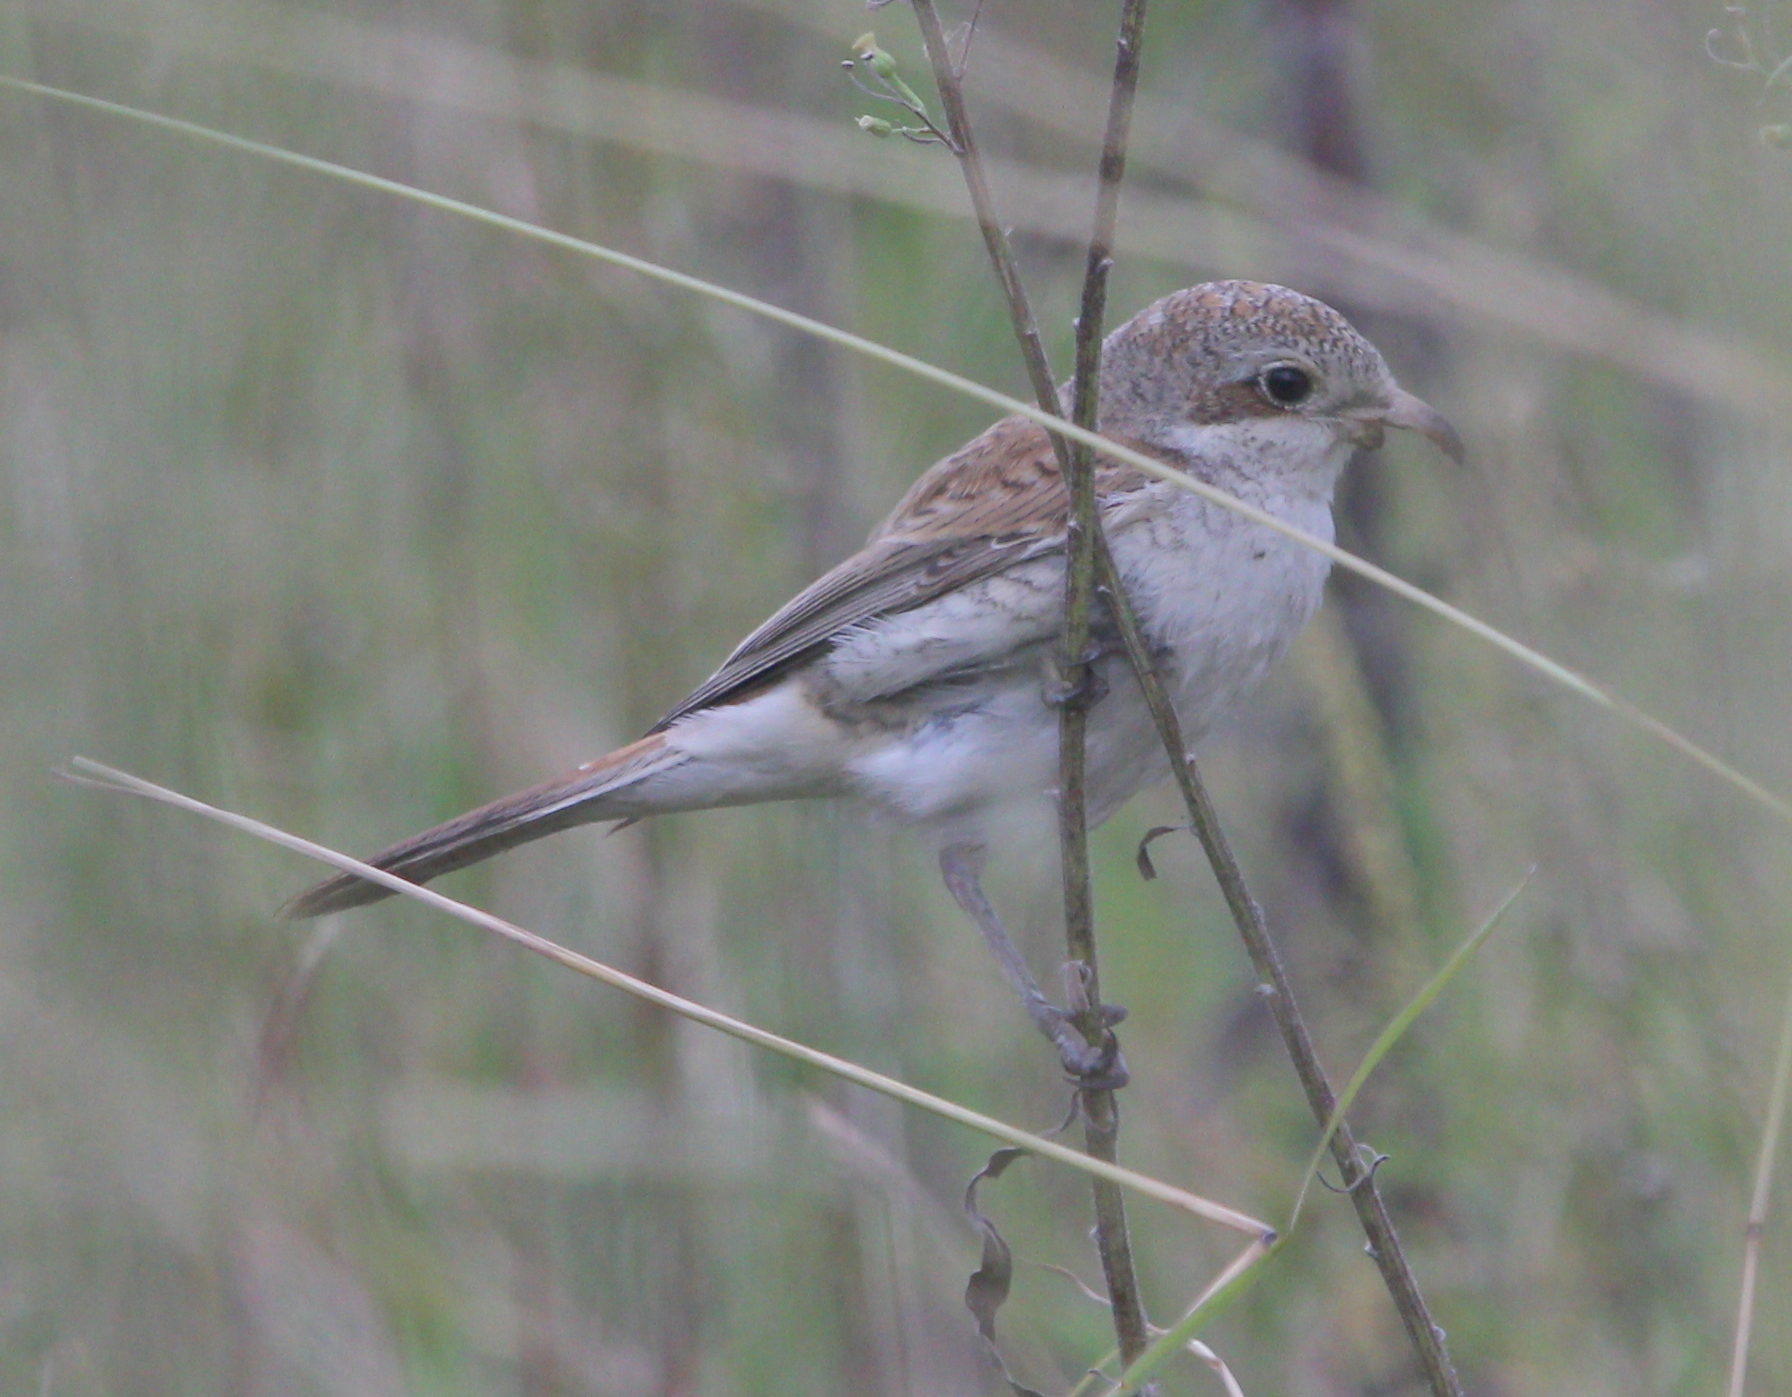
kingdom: Animalia
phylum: Chordata
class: Aves
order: Passeriformes
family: Laniidae
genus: Lanius
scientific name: Lanius collurio
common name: Red-backed shrike
